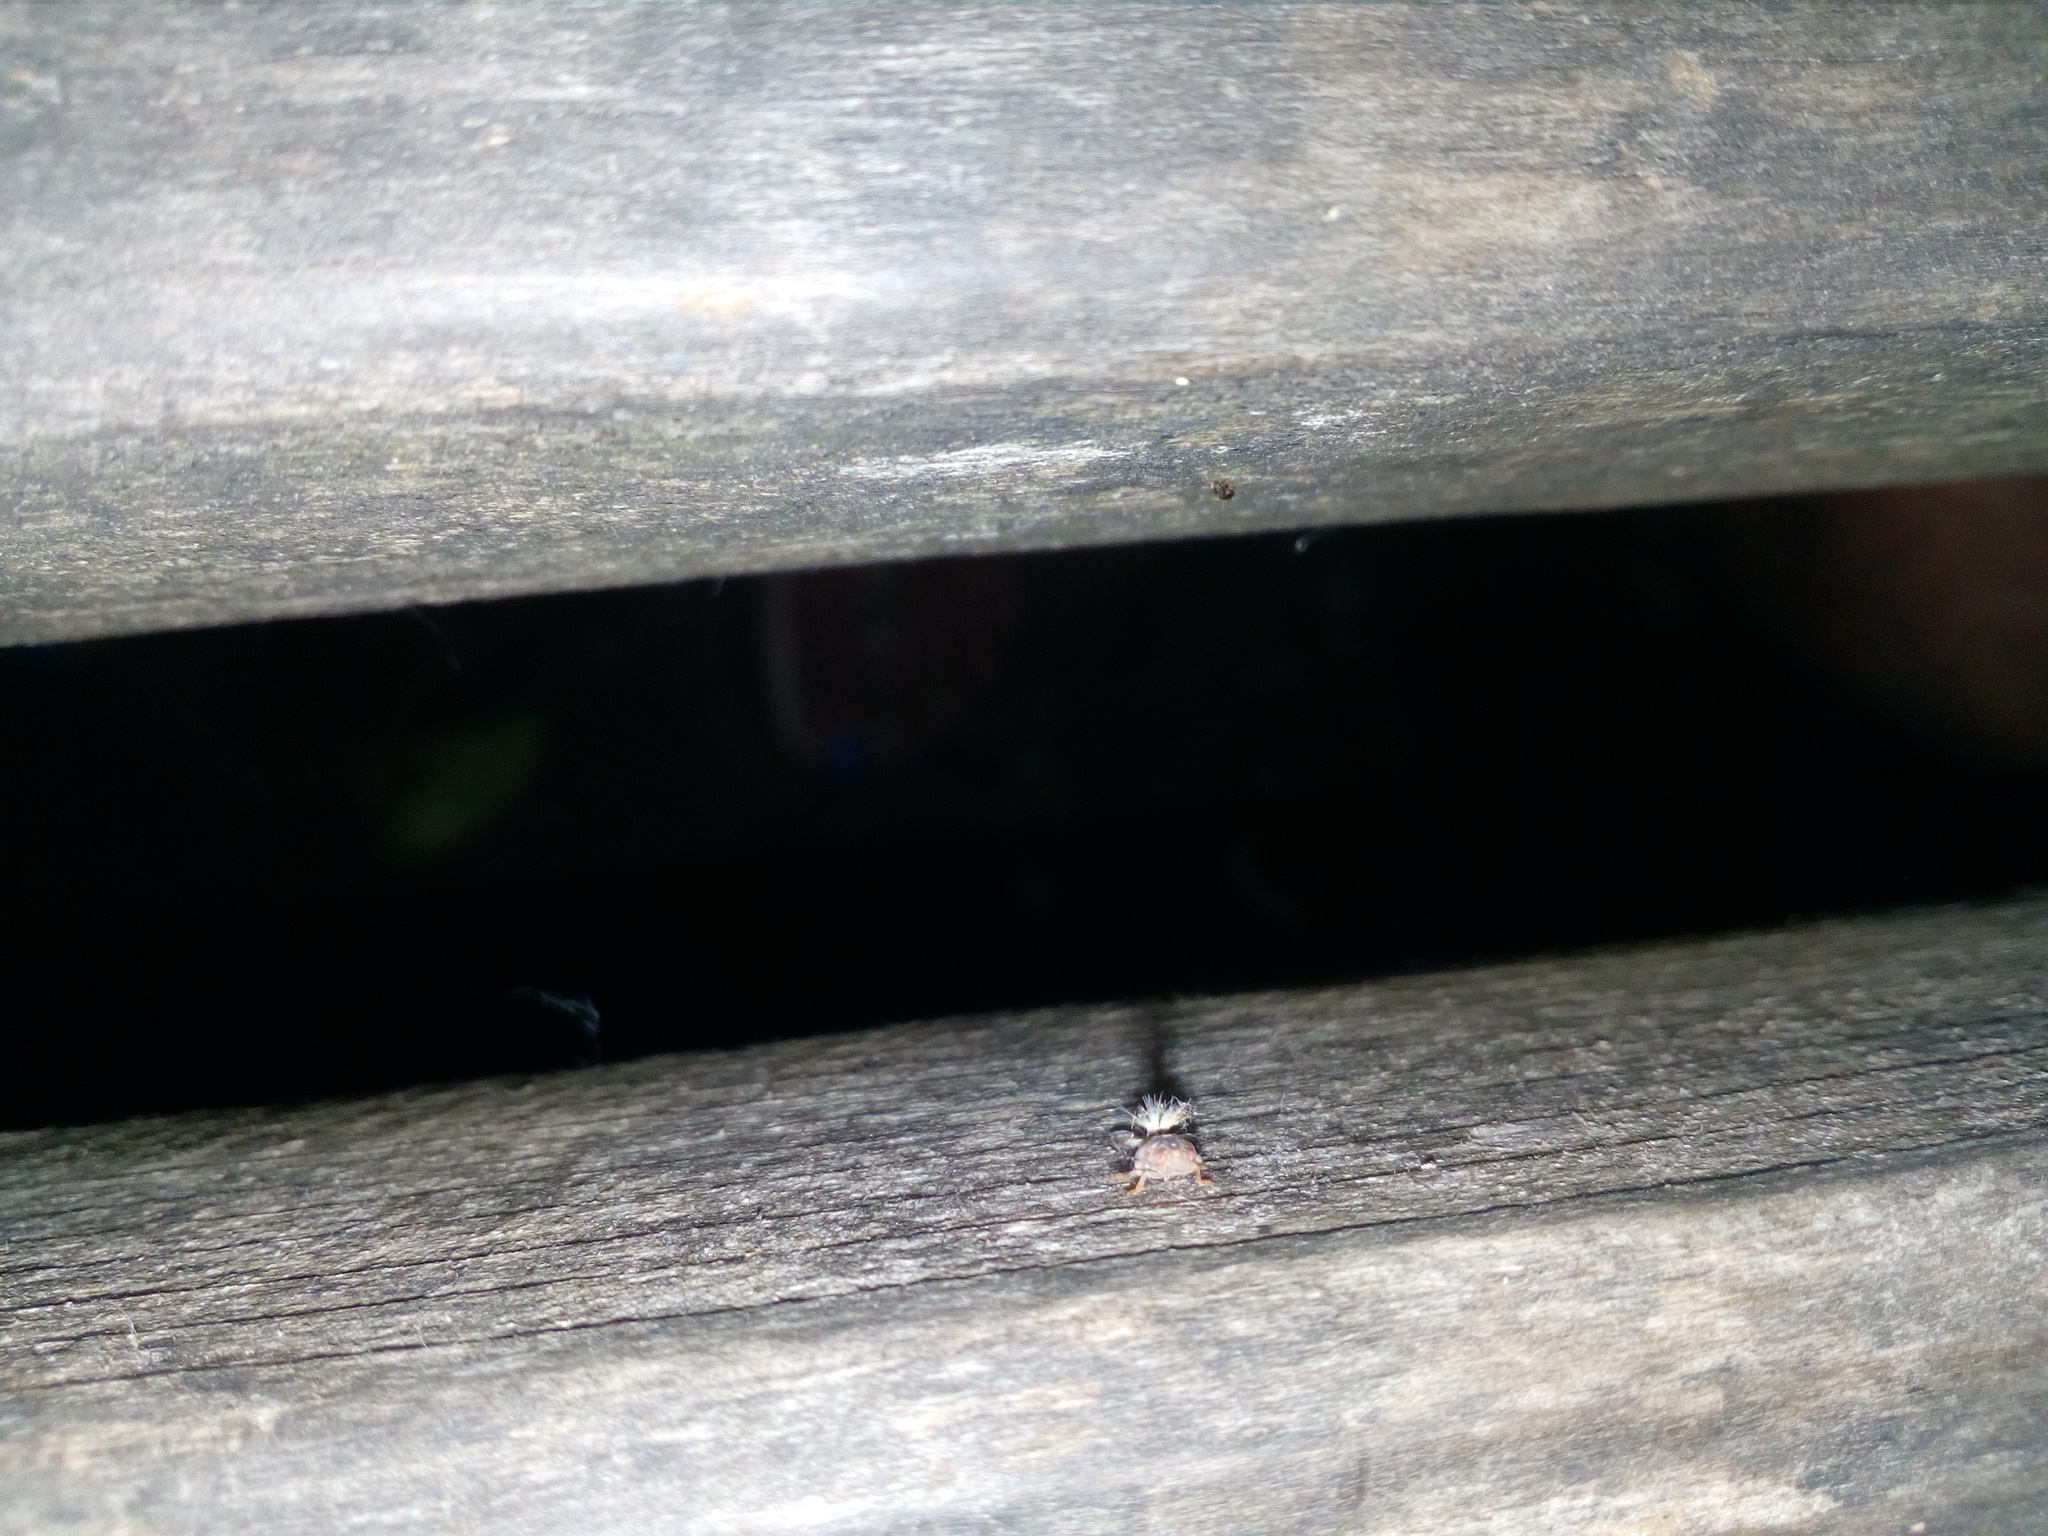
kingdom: Animalia
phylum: Arthropoda
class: Insecta
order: Hemiptera
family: Ricaniidae
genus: Scolypopa
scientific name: Scolypopa australis
